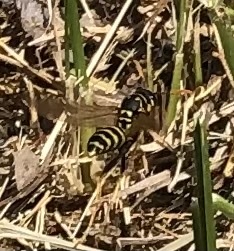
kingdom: Animalia
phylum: Arthropoda
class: Insecta
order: Hymenoptera
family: Eumenidae
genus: Polistes
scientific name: Polistes dominula
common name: Paper wasp
